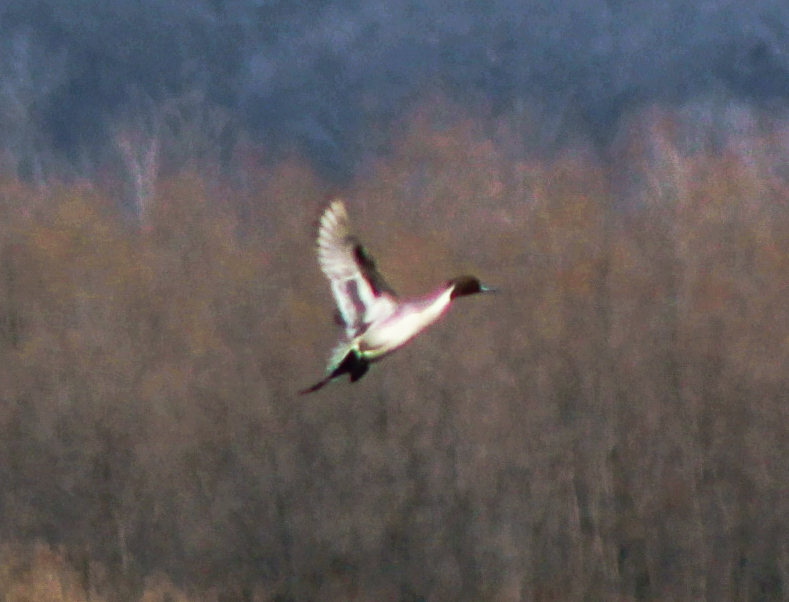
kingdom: Animalia
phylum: Chordata
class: Aves
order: Anseriformes
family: Anatidae
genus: Anas
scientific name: Anas acuta
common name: Northern pintail
